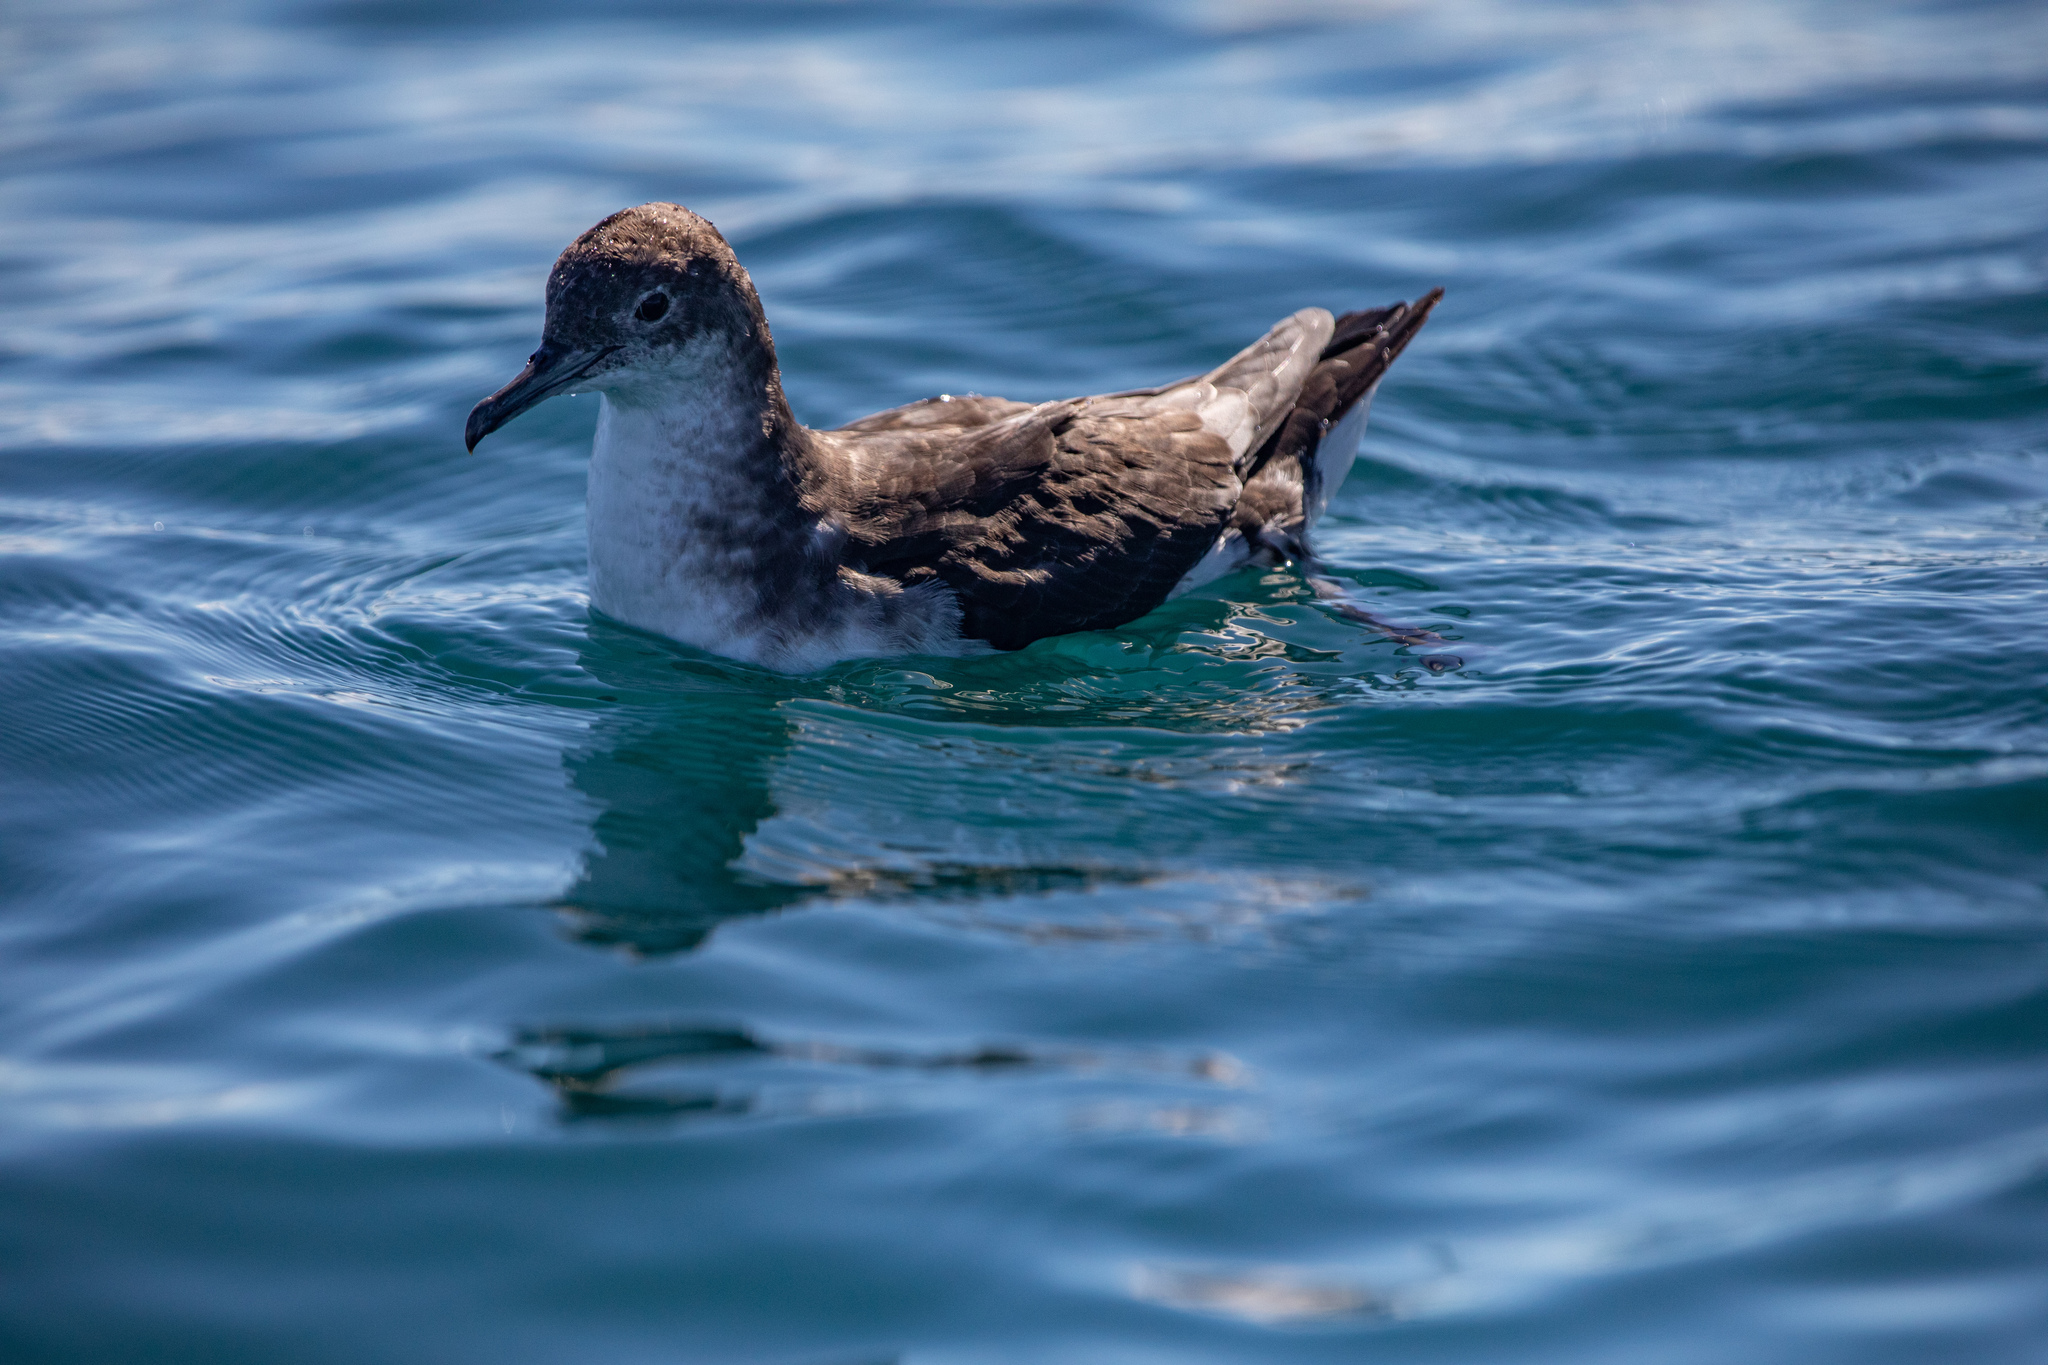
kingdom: Animalia
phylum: Chordata
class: Aves
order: Procellariiformes
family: Procellariidae
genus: Puffinus
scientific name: Puffinus gavia
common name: Fluttering shearwater
